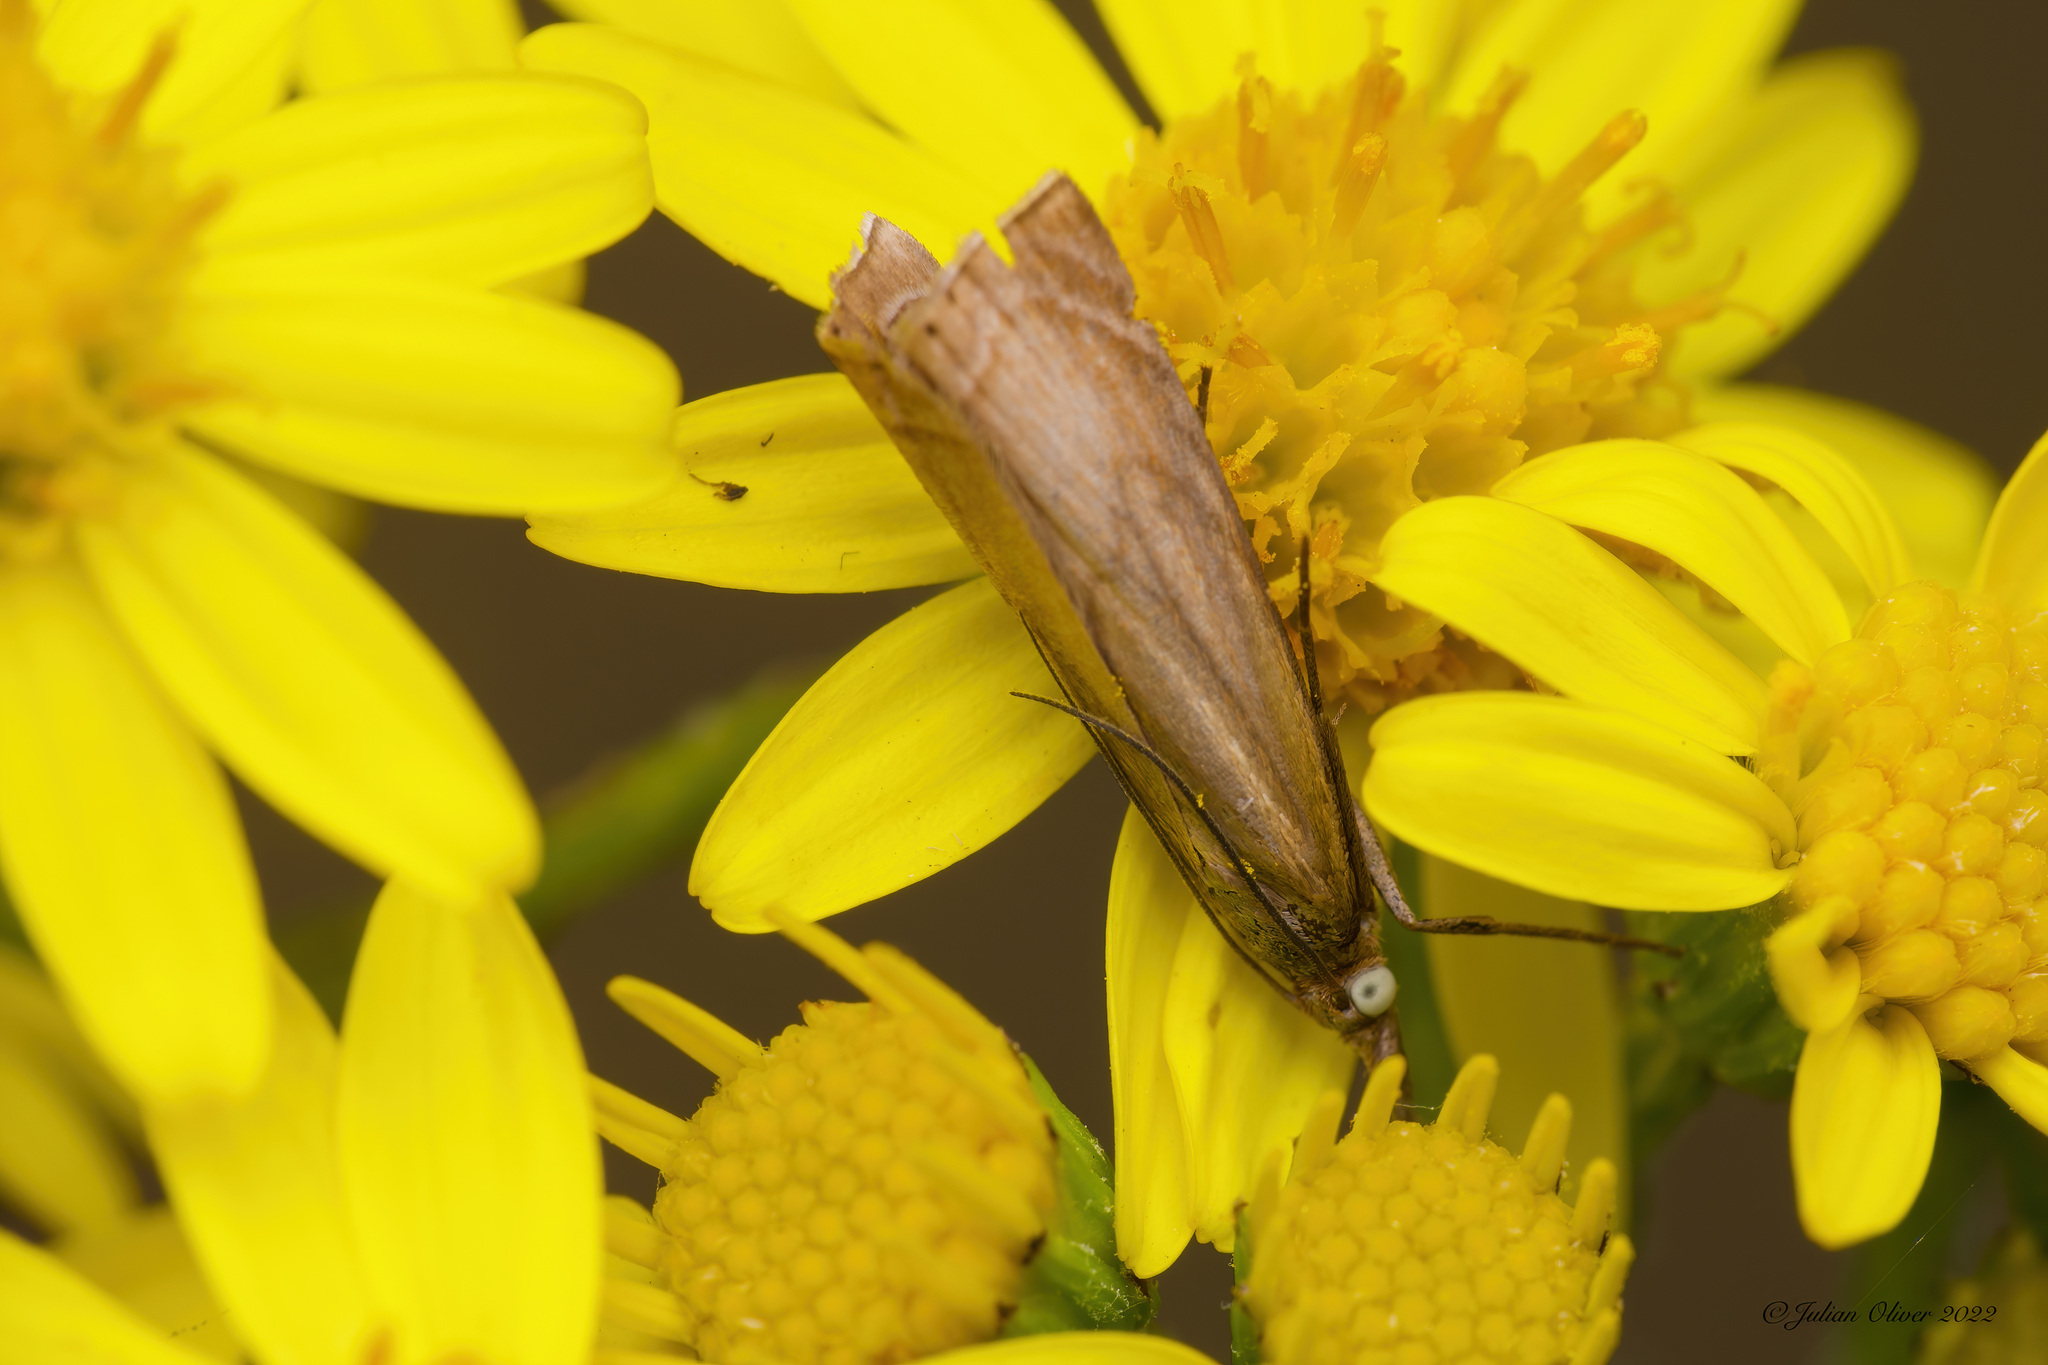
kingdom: Animalia
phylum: Arthropoda
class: Insecta
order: Lepidoptera
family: Crambidae
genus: Chrysoteuchia
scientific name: Chrysoteuchia culmella
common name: Garden grass-veneer
